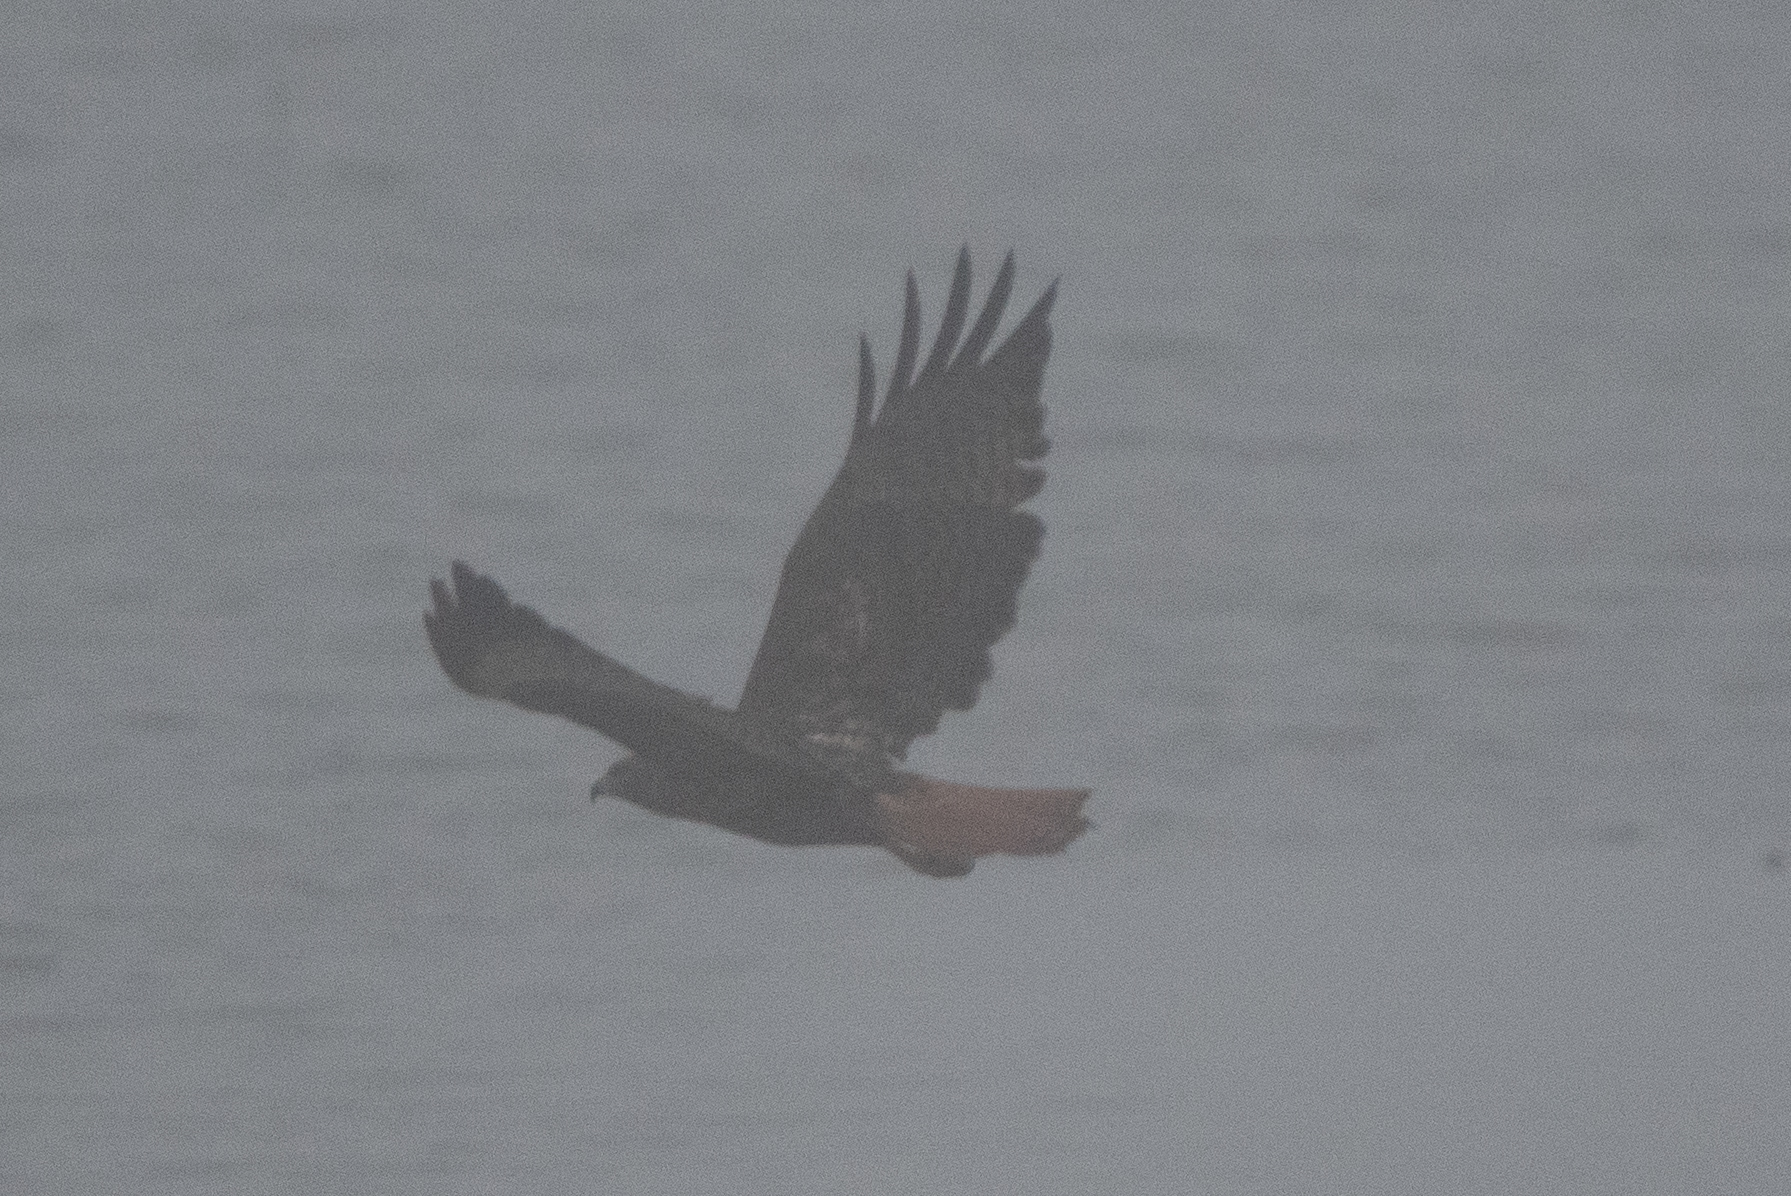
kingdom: Animalia
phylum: Chordata
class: Aves
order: Accipitriformes
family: Accipitridae
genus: Buteo
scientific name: Buteo jamaicensis
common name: Red-tailed hawk
